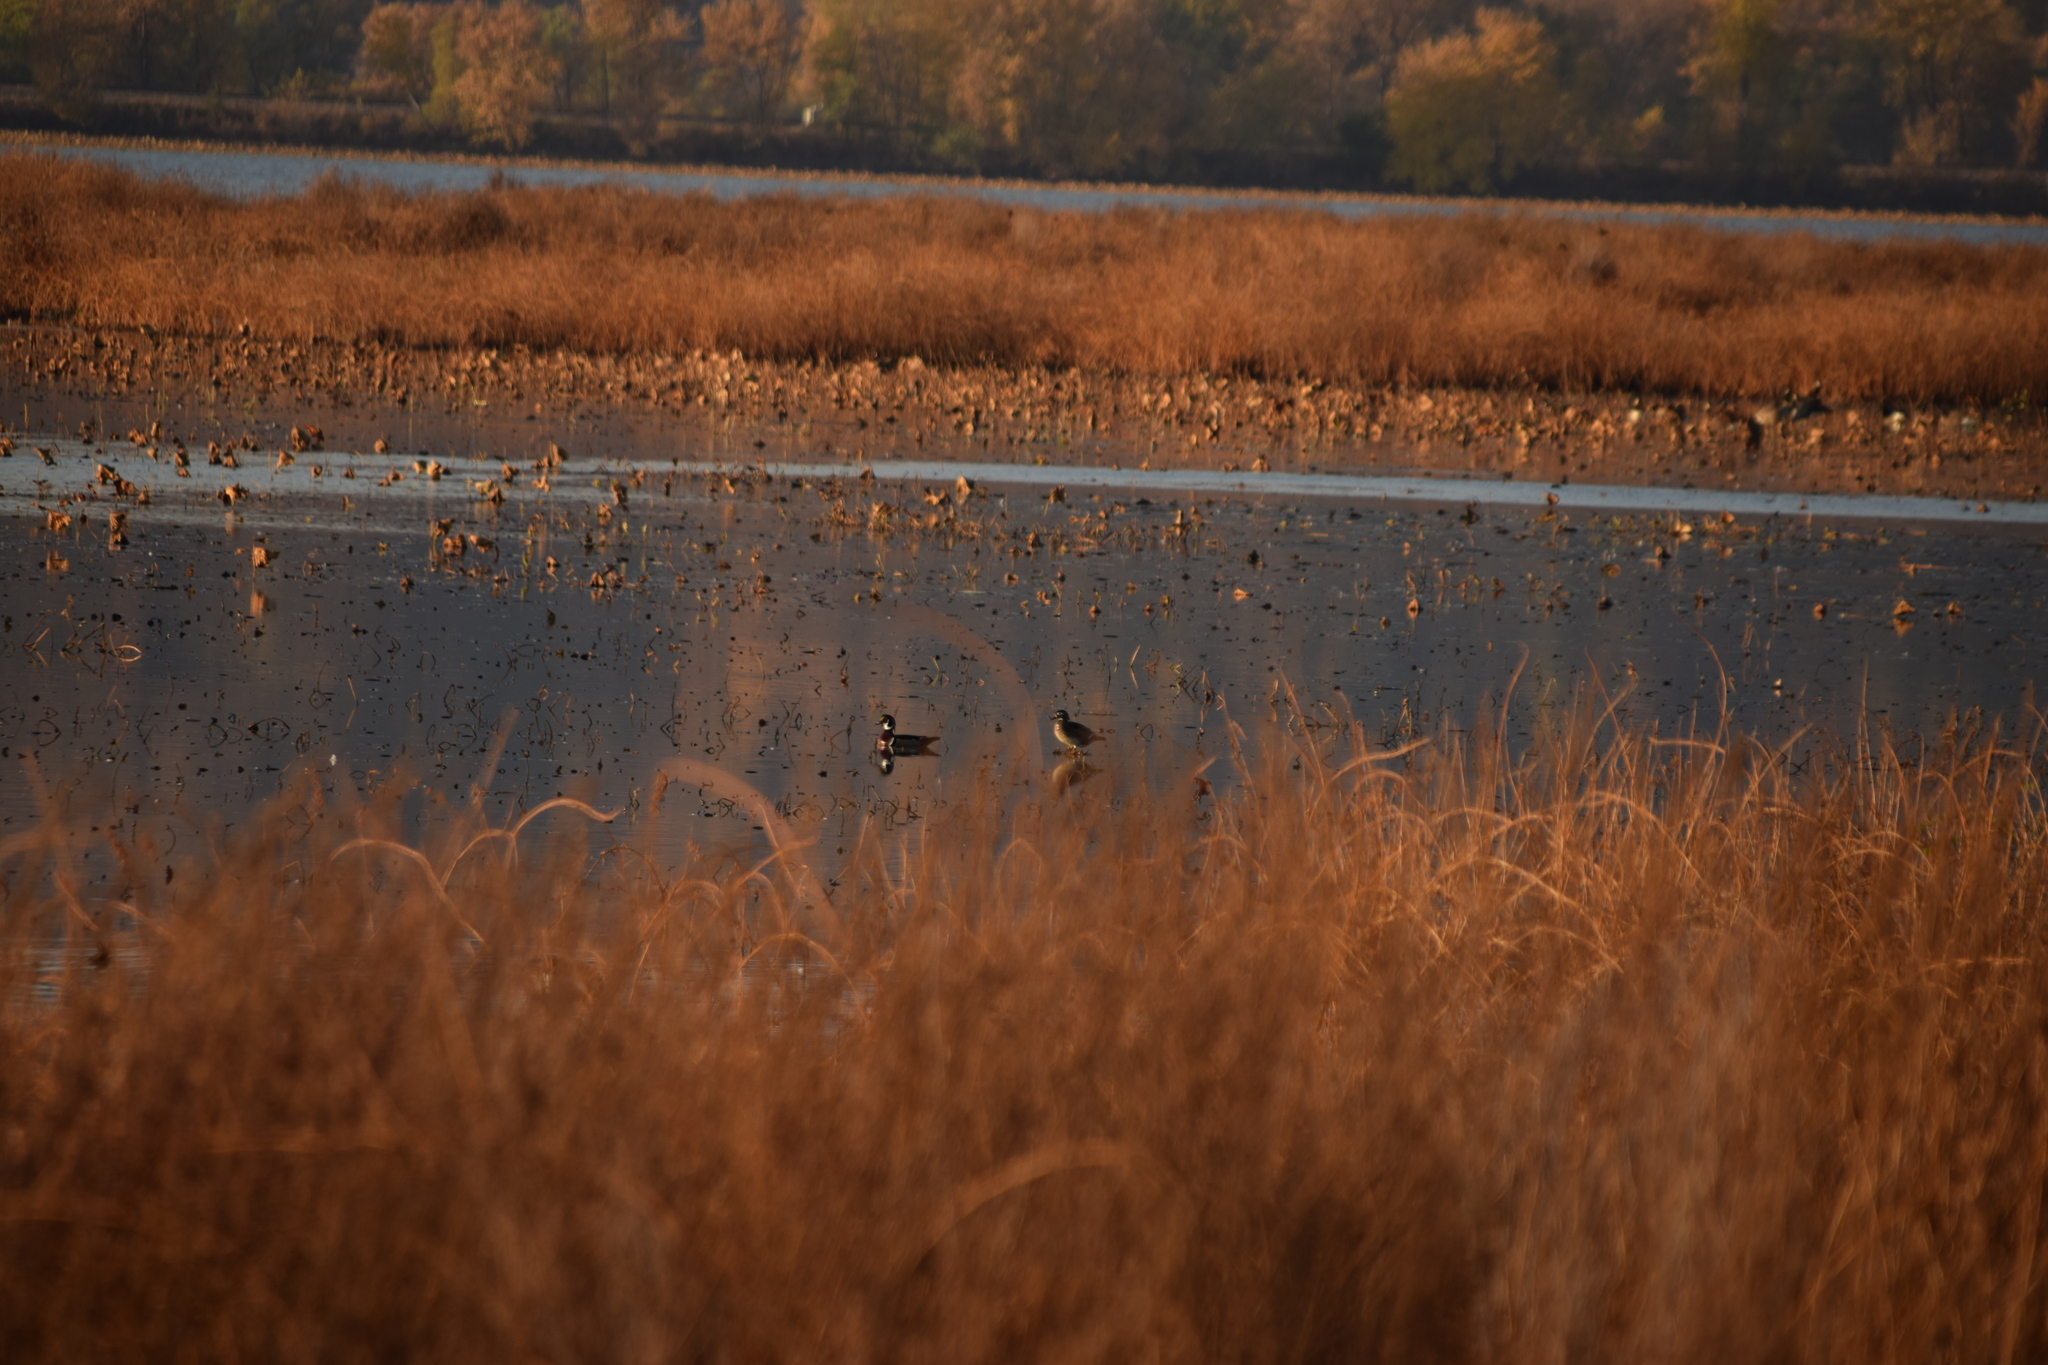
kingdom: Animalia
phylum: Chordata
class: Aves
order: Anseriformes
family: Anatidae
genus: Aix
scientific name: Aix sponsa
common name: Wood duck
